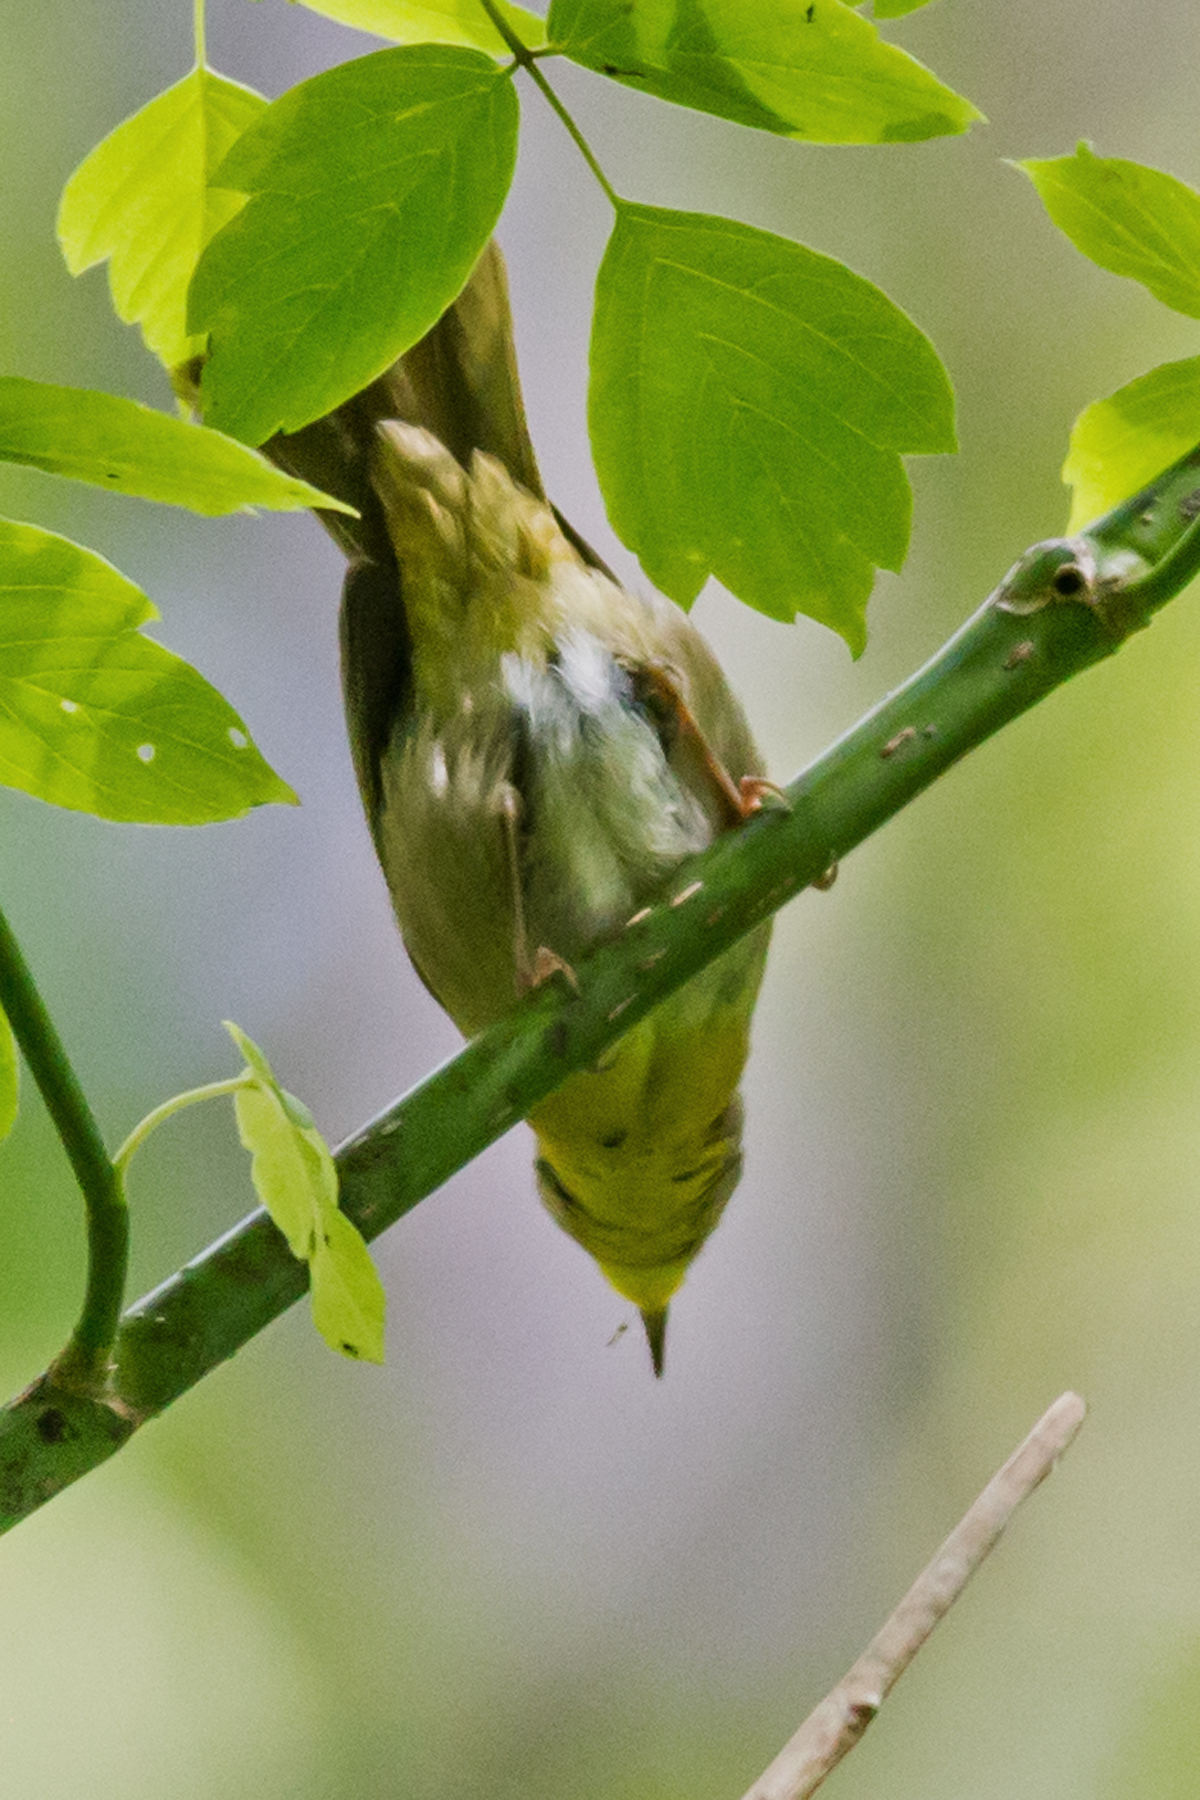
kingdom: Animalia
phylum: Chordata
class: Aves
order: Passeriformes
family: Parulidae
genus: Geothlypis
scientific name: Geothlypis trichas
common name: Common yellowthroat
